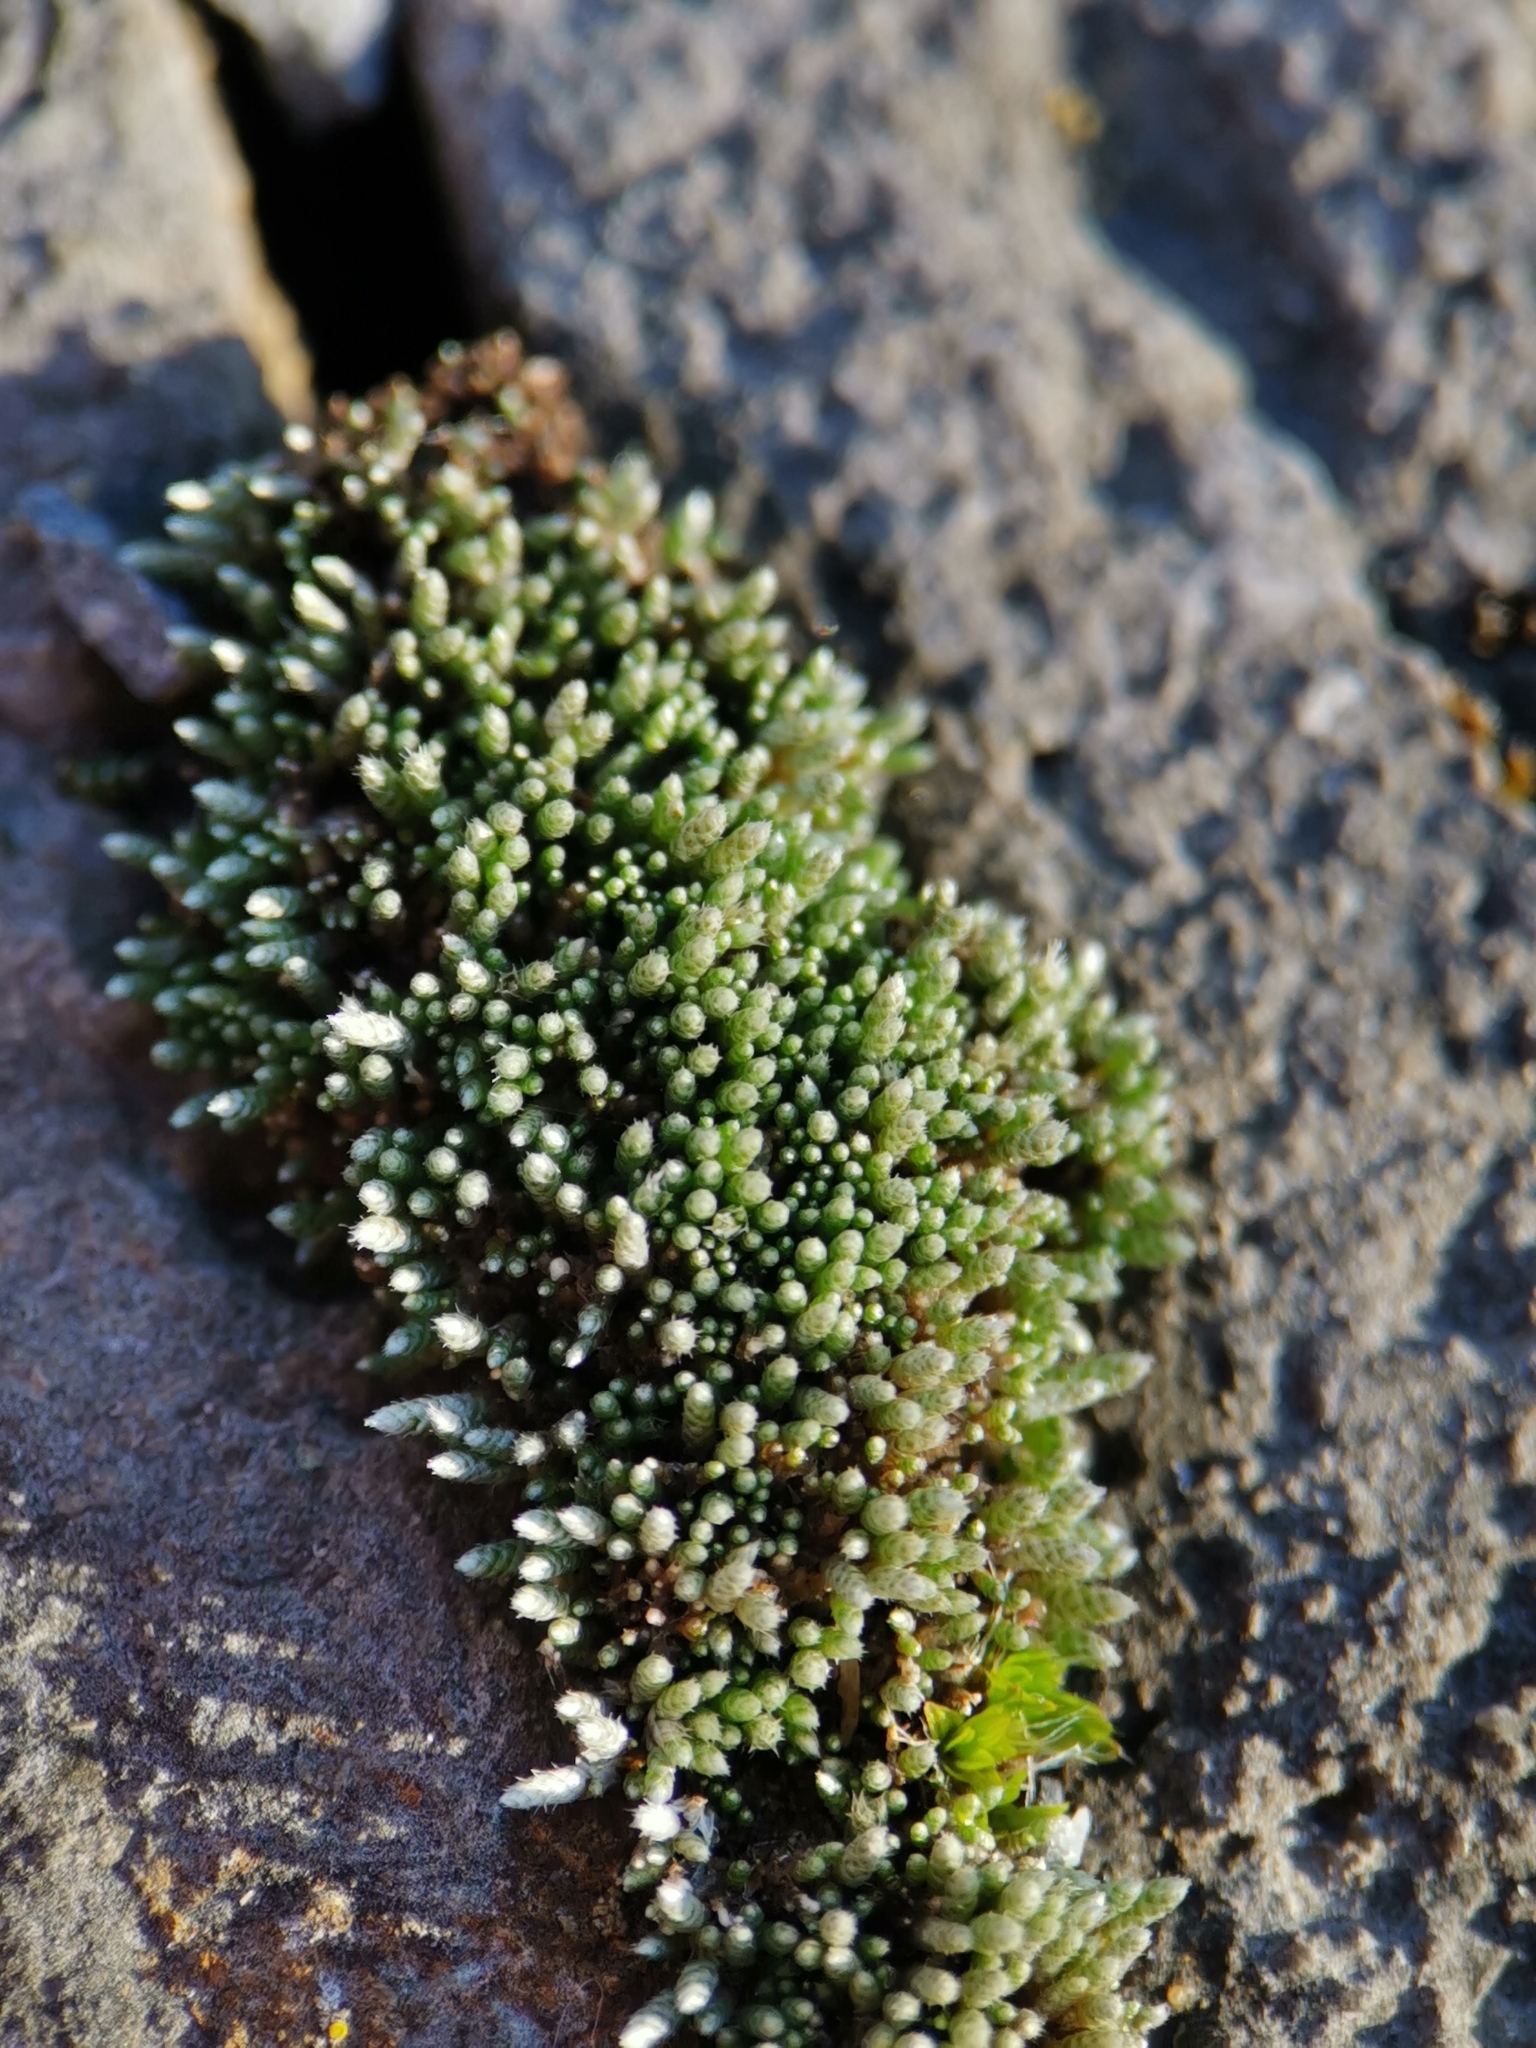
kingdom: Plantae
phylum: Bryophyta
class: Bryopsida
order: Bryales
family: Bryaceae
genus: Bryum
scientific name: Bryum argenteum
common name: Silver-moss
